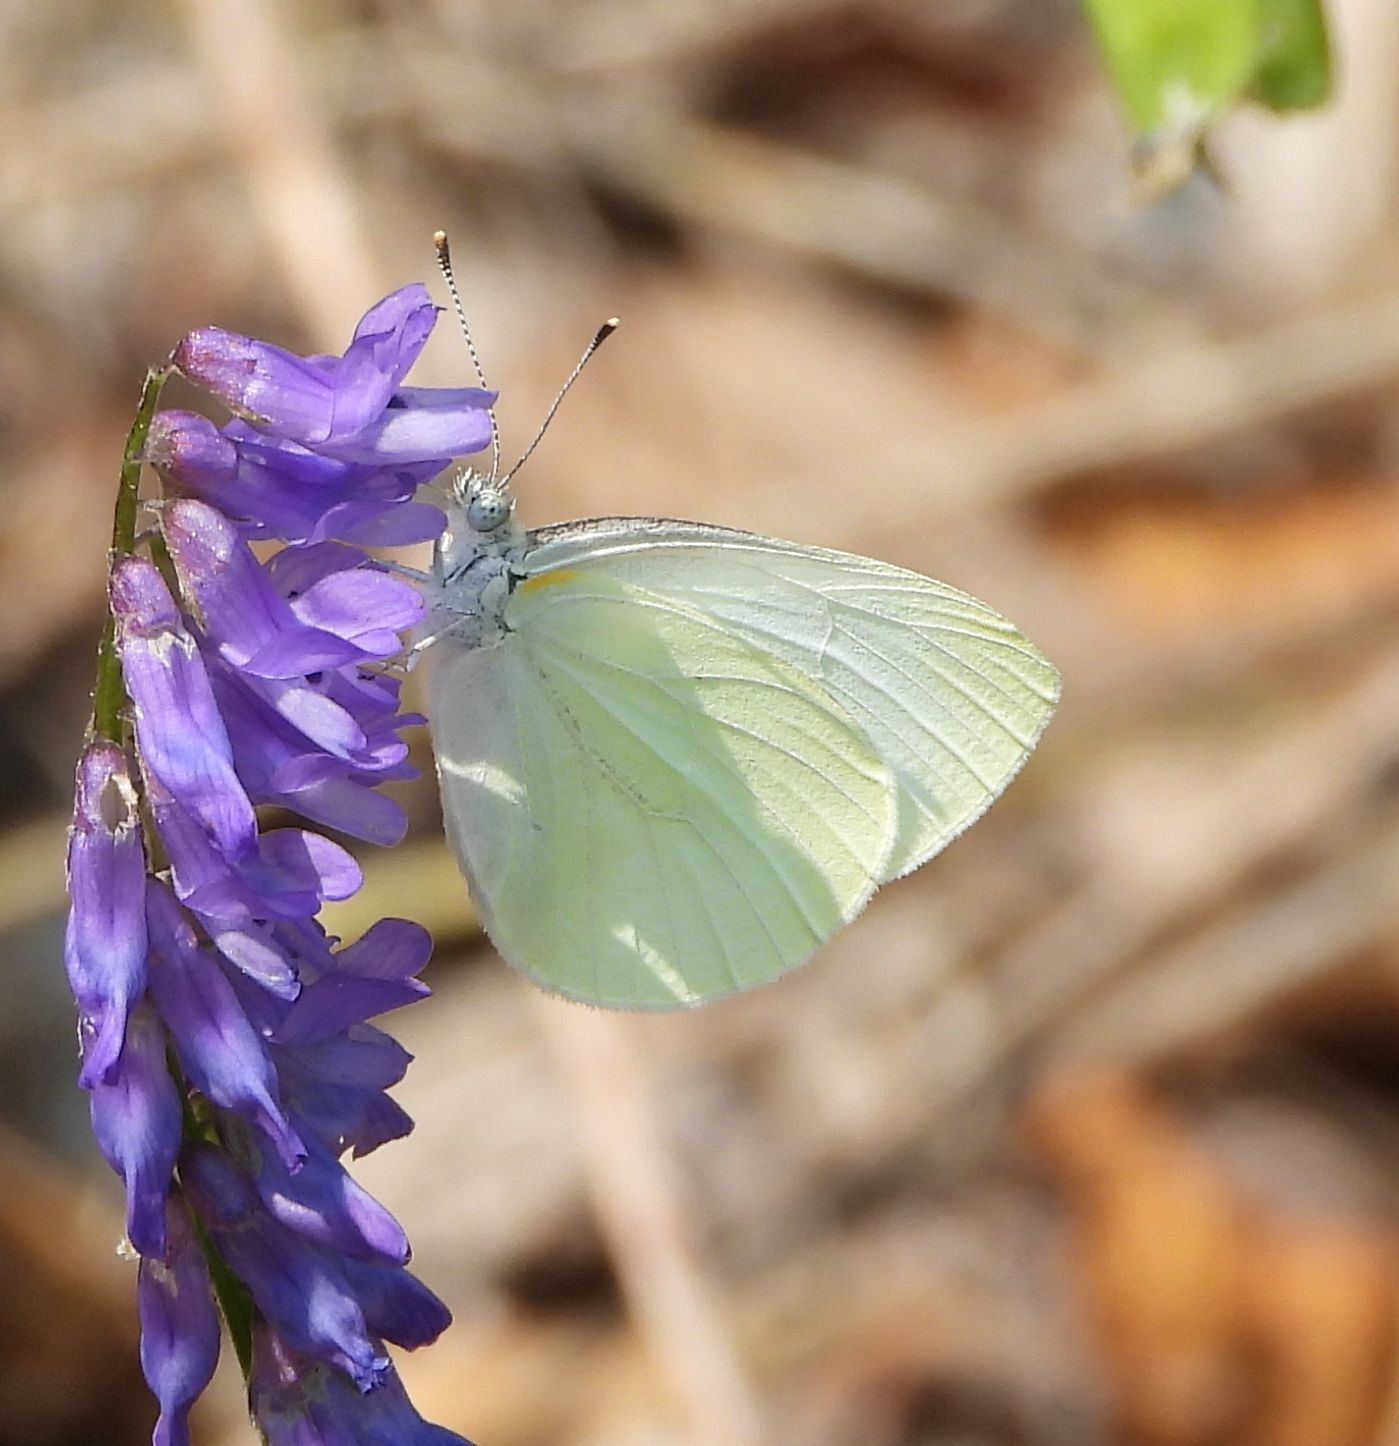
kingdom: Animalia
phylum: Arthropoda
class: Insecta
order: Lepidoptera
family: Pieridae
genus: Pieris
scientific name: Pieris oleracea
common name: Mustard white
